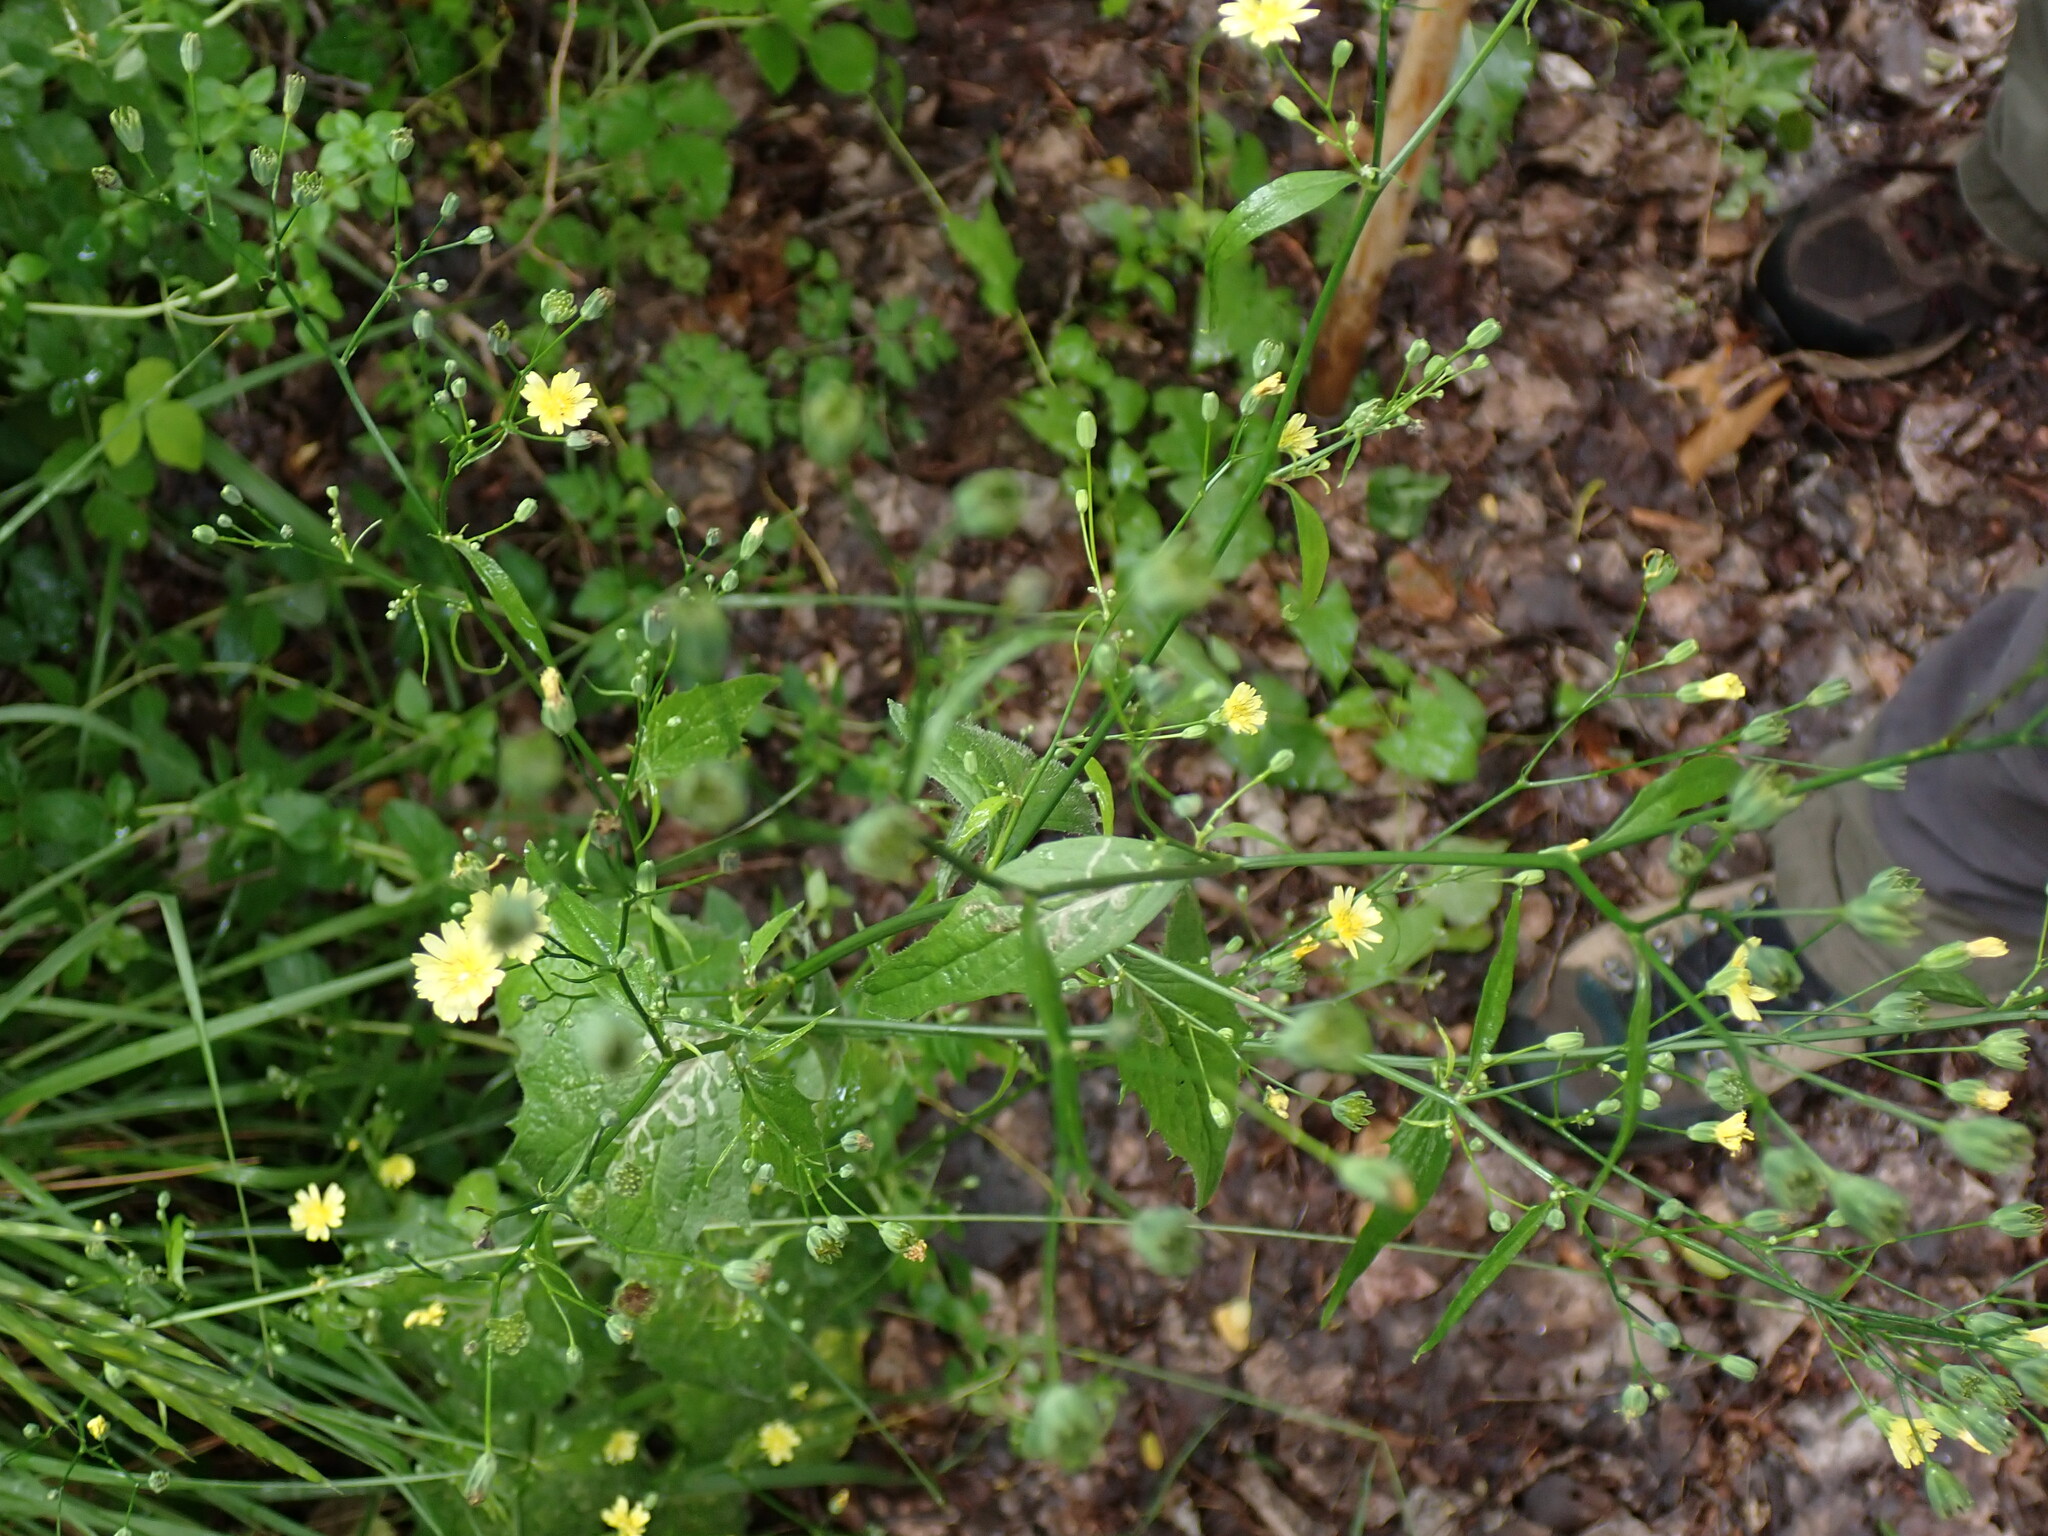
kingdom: Plantae
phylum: Tracheophyta
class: Magnoliopsida
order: Asterales
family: Asteraceae
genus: Lapsana
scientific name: Lapsana communis
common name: Nipplewort
